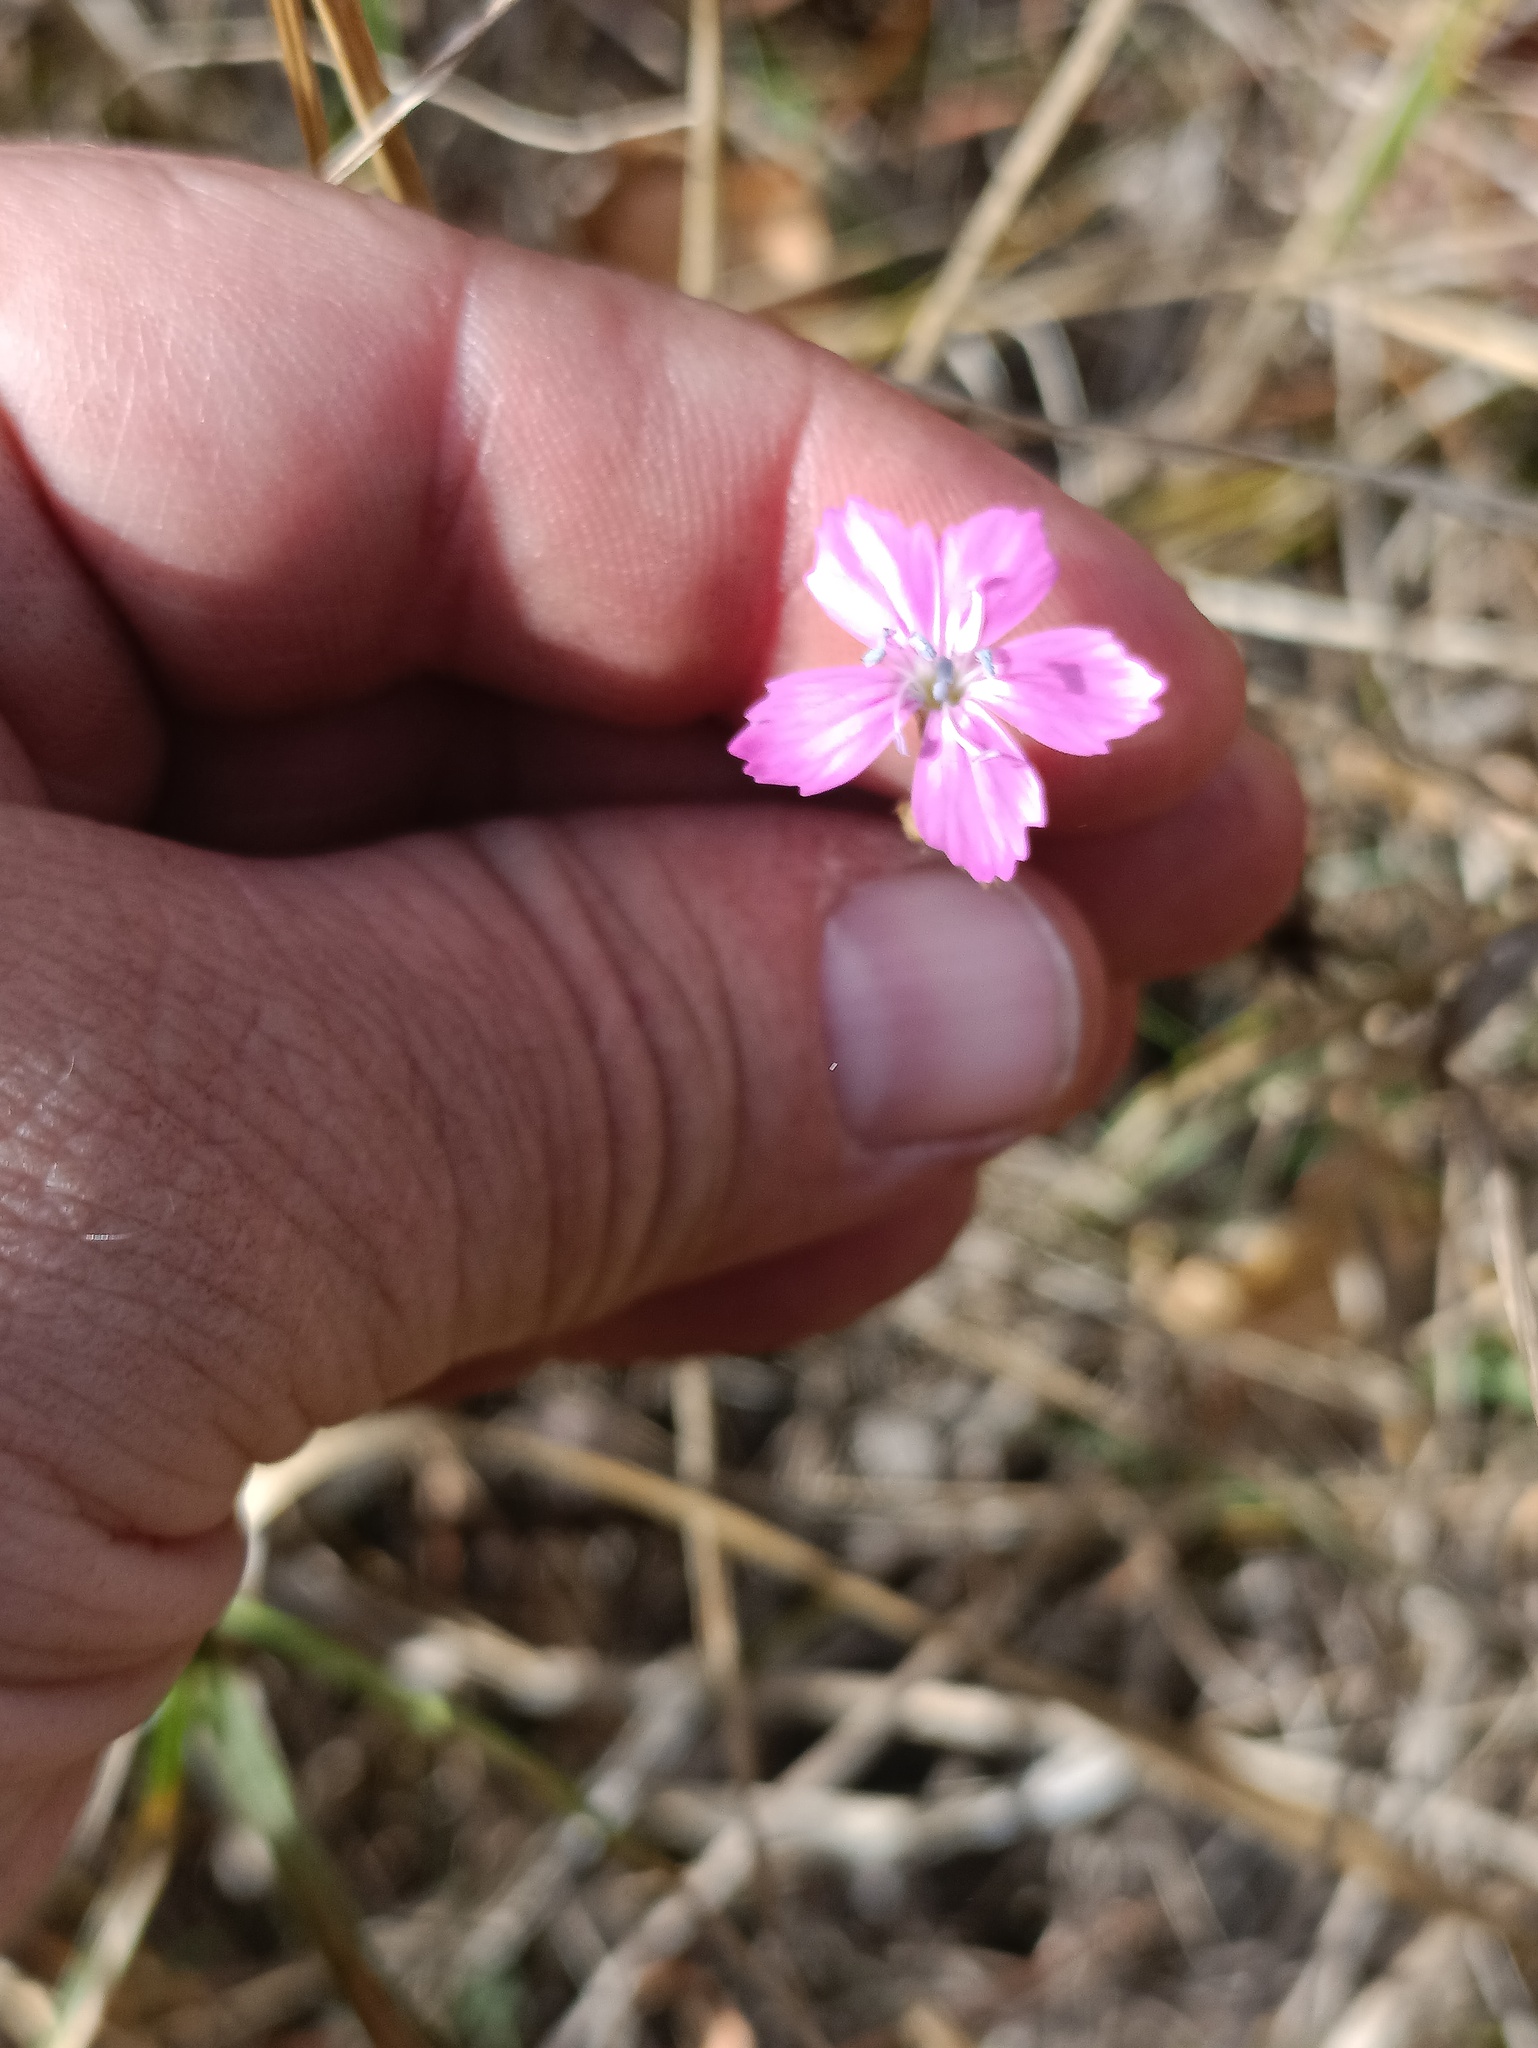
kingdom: Plantae
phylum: Tracheophyta
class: Magnoliopsida
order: Caryophyllales
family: Caryophyllaceae
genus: Dianthus
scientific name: Dianthus borbasii
